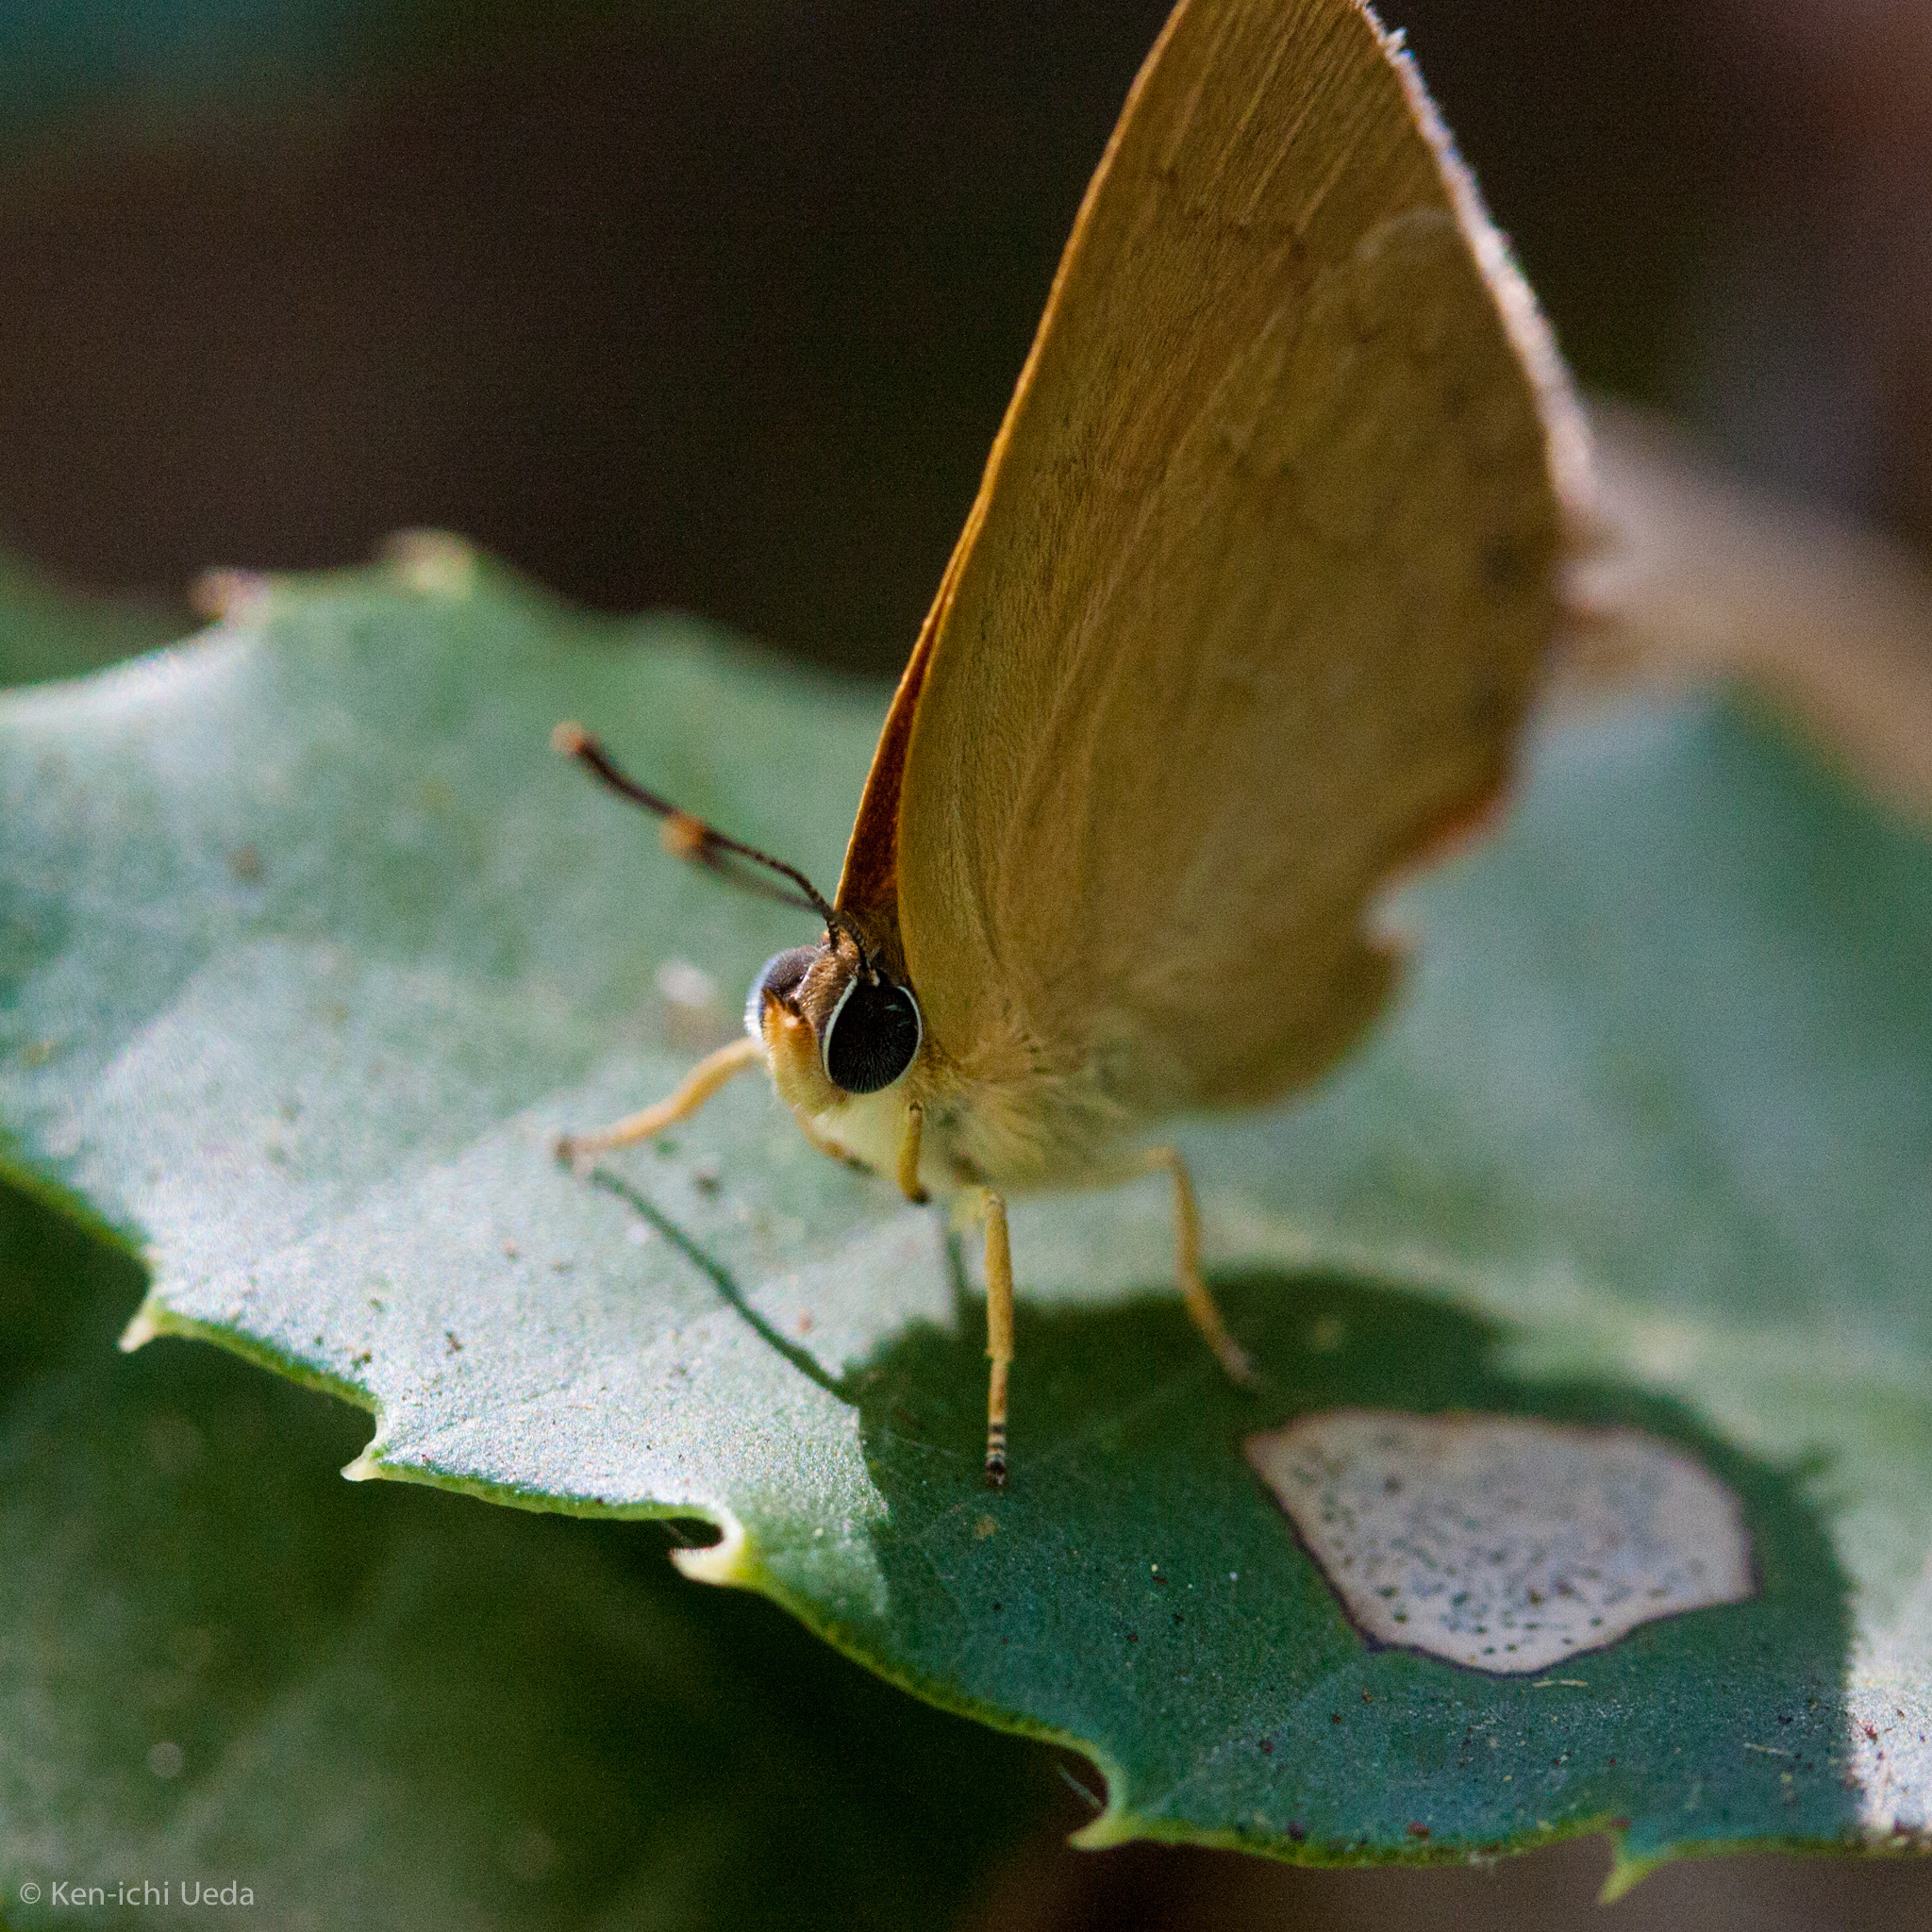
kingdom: Animalia
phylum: Arthropoda
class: Insecta
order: Lepidoptera
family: Lycaenidae
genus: Habrodais
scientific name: Habrodais grunus
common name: Golden hairstreak
